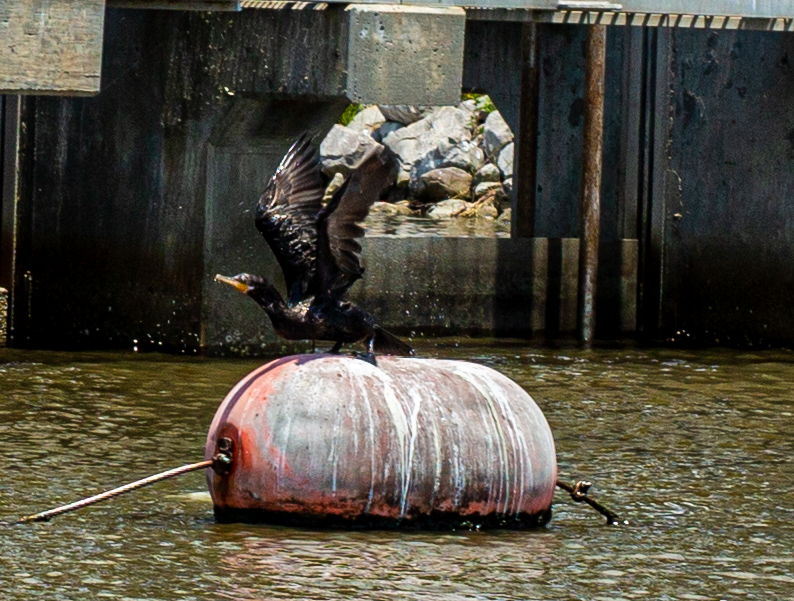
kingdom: Animalia
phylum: Chordata
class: Aves
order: Suliformes
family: Phalacrocoracidae
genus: Phalacrocorax
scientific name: Phalacrocorax brasilianus
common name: Neotropic cormorant
